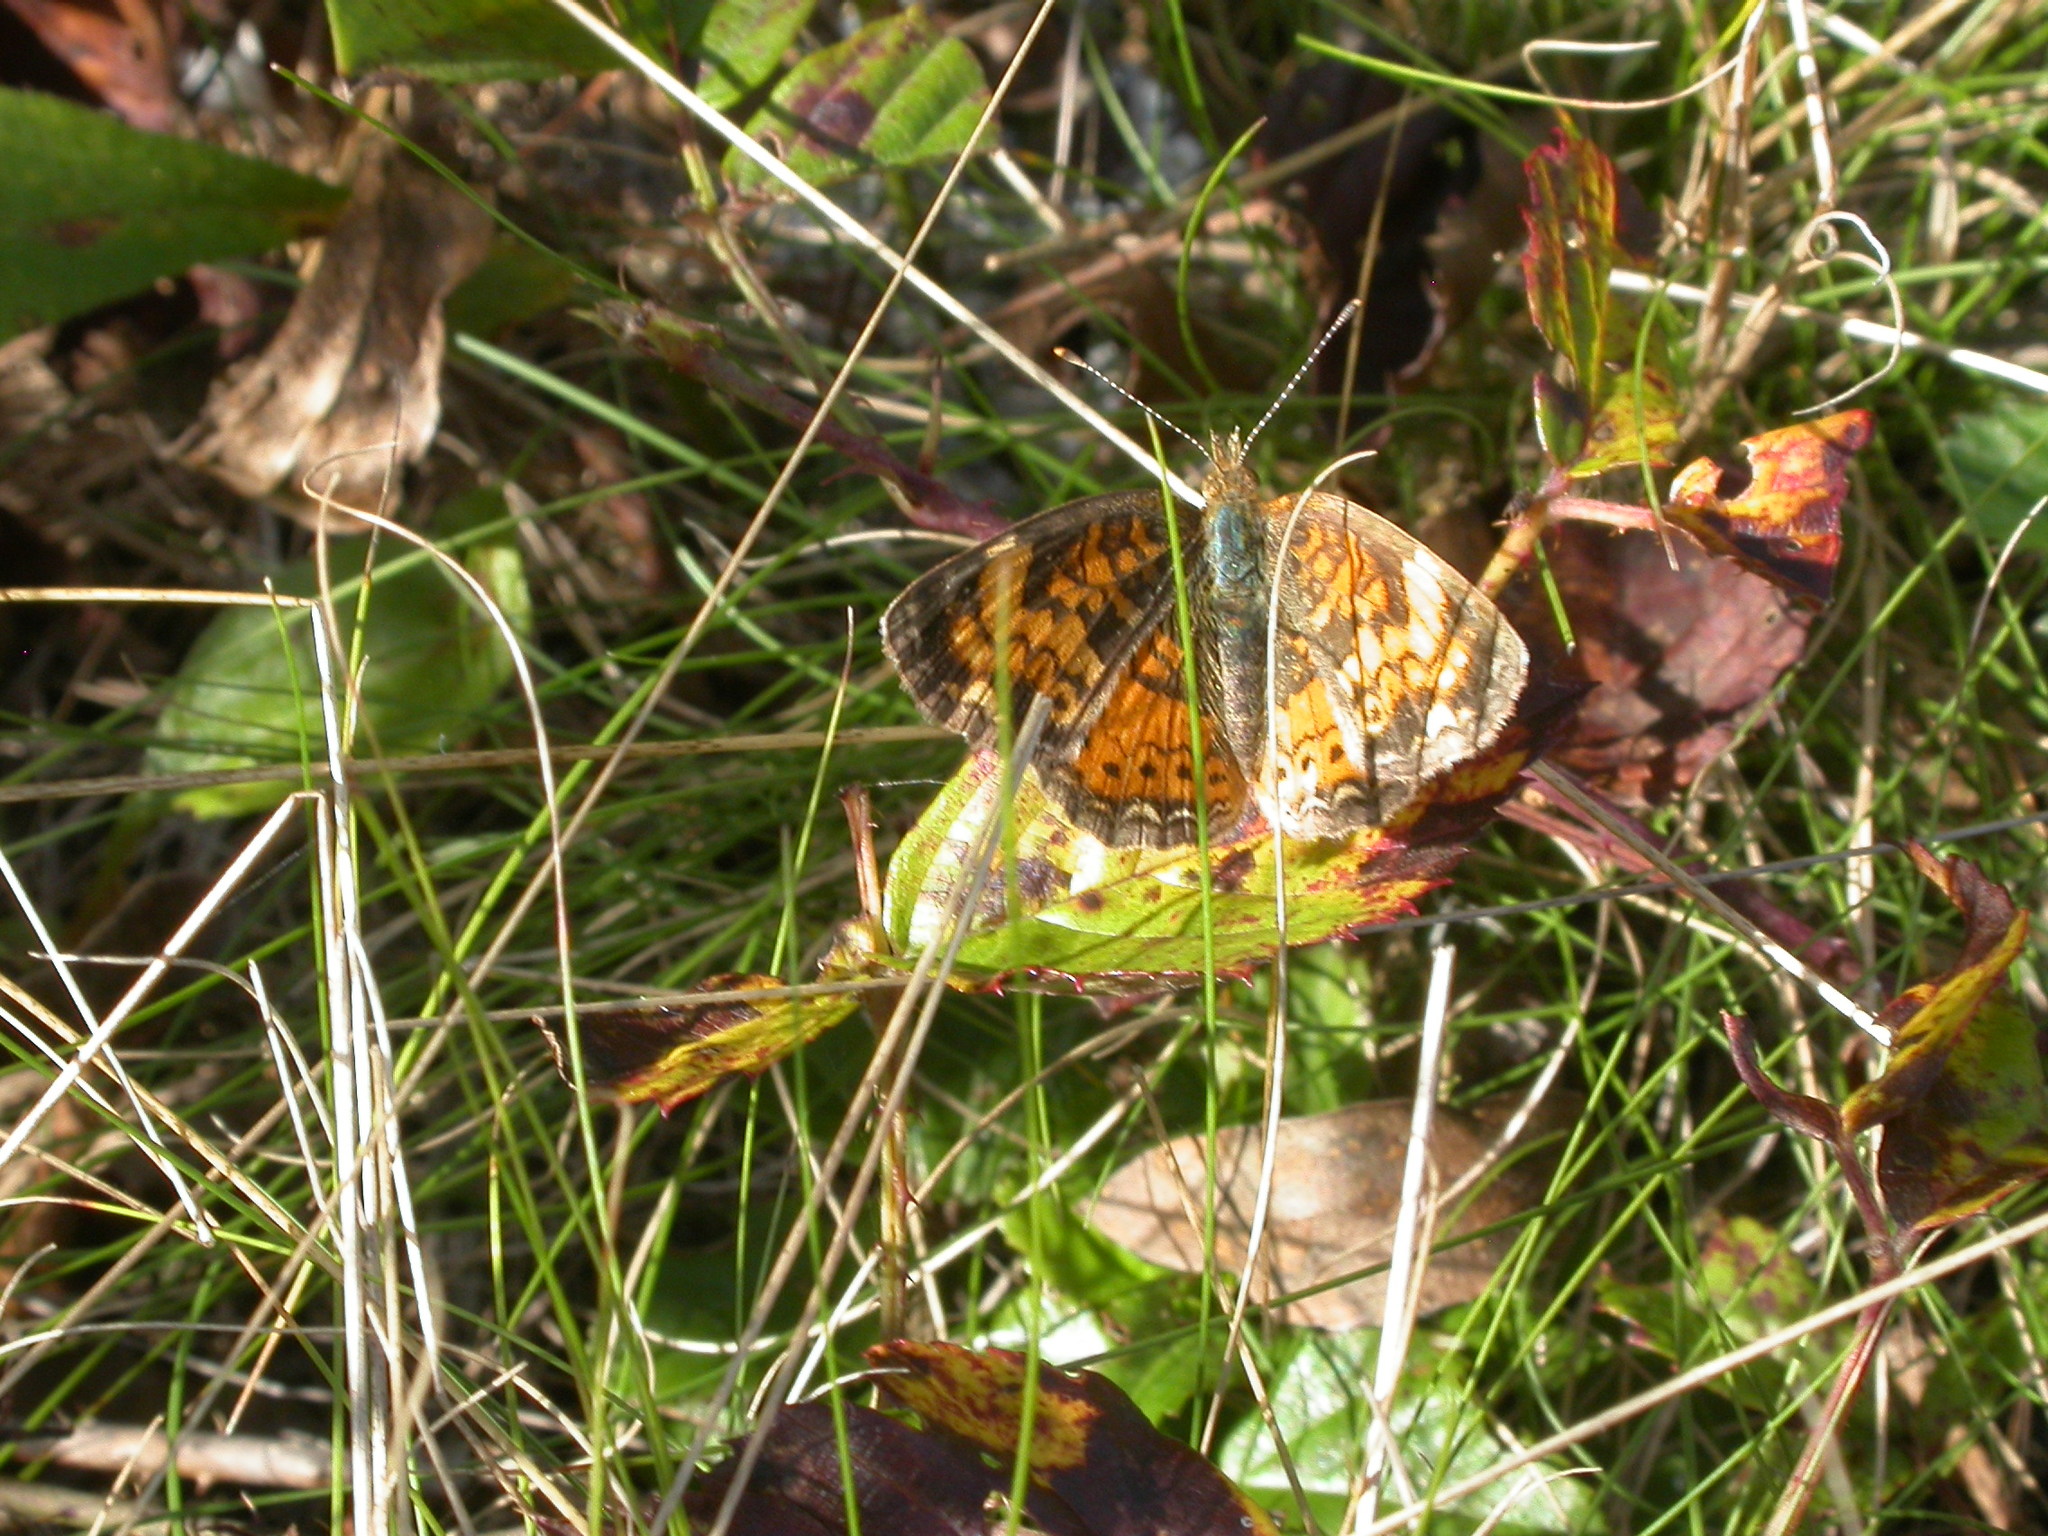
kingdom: Animalia
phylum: Arthropoda
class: Insecta
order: Lepidoptera
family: Nymphalidae
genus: Phyciodes
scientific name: Phyciodes tharos
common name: Pearl crescent
